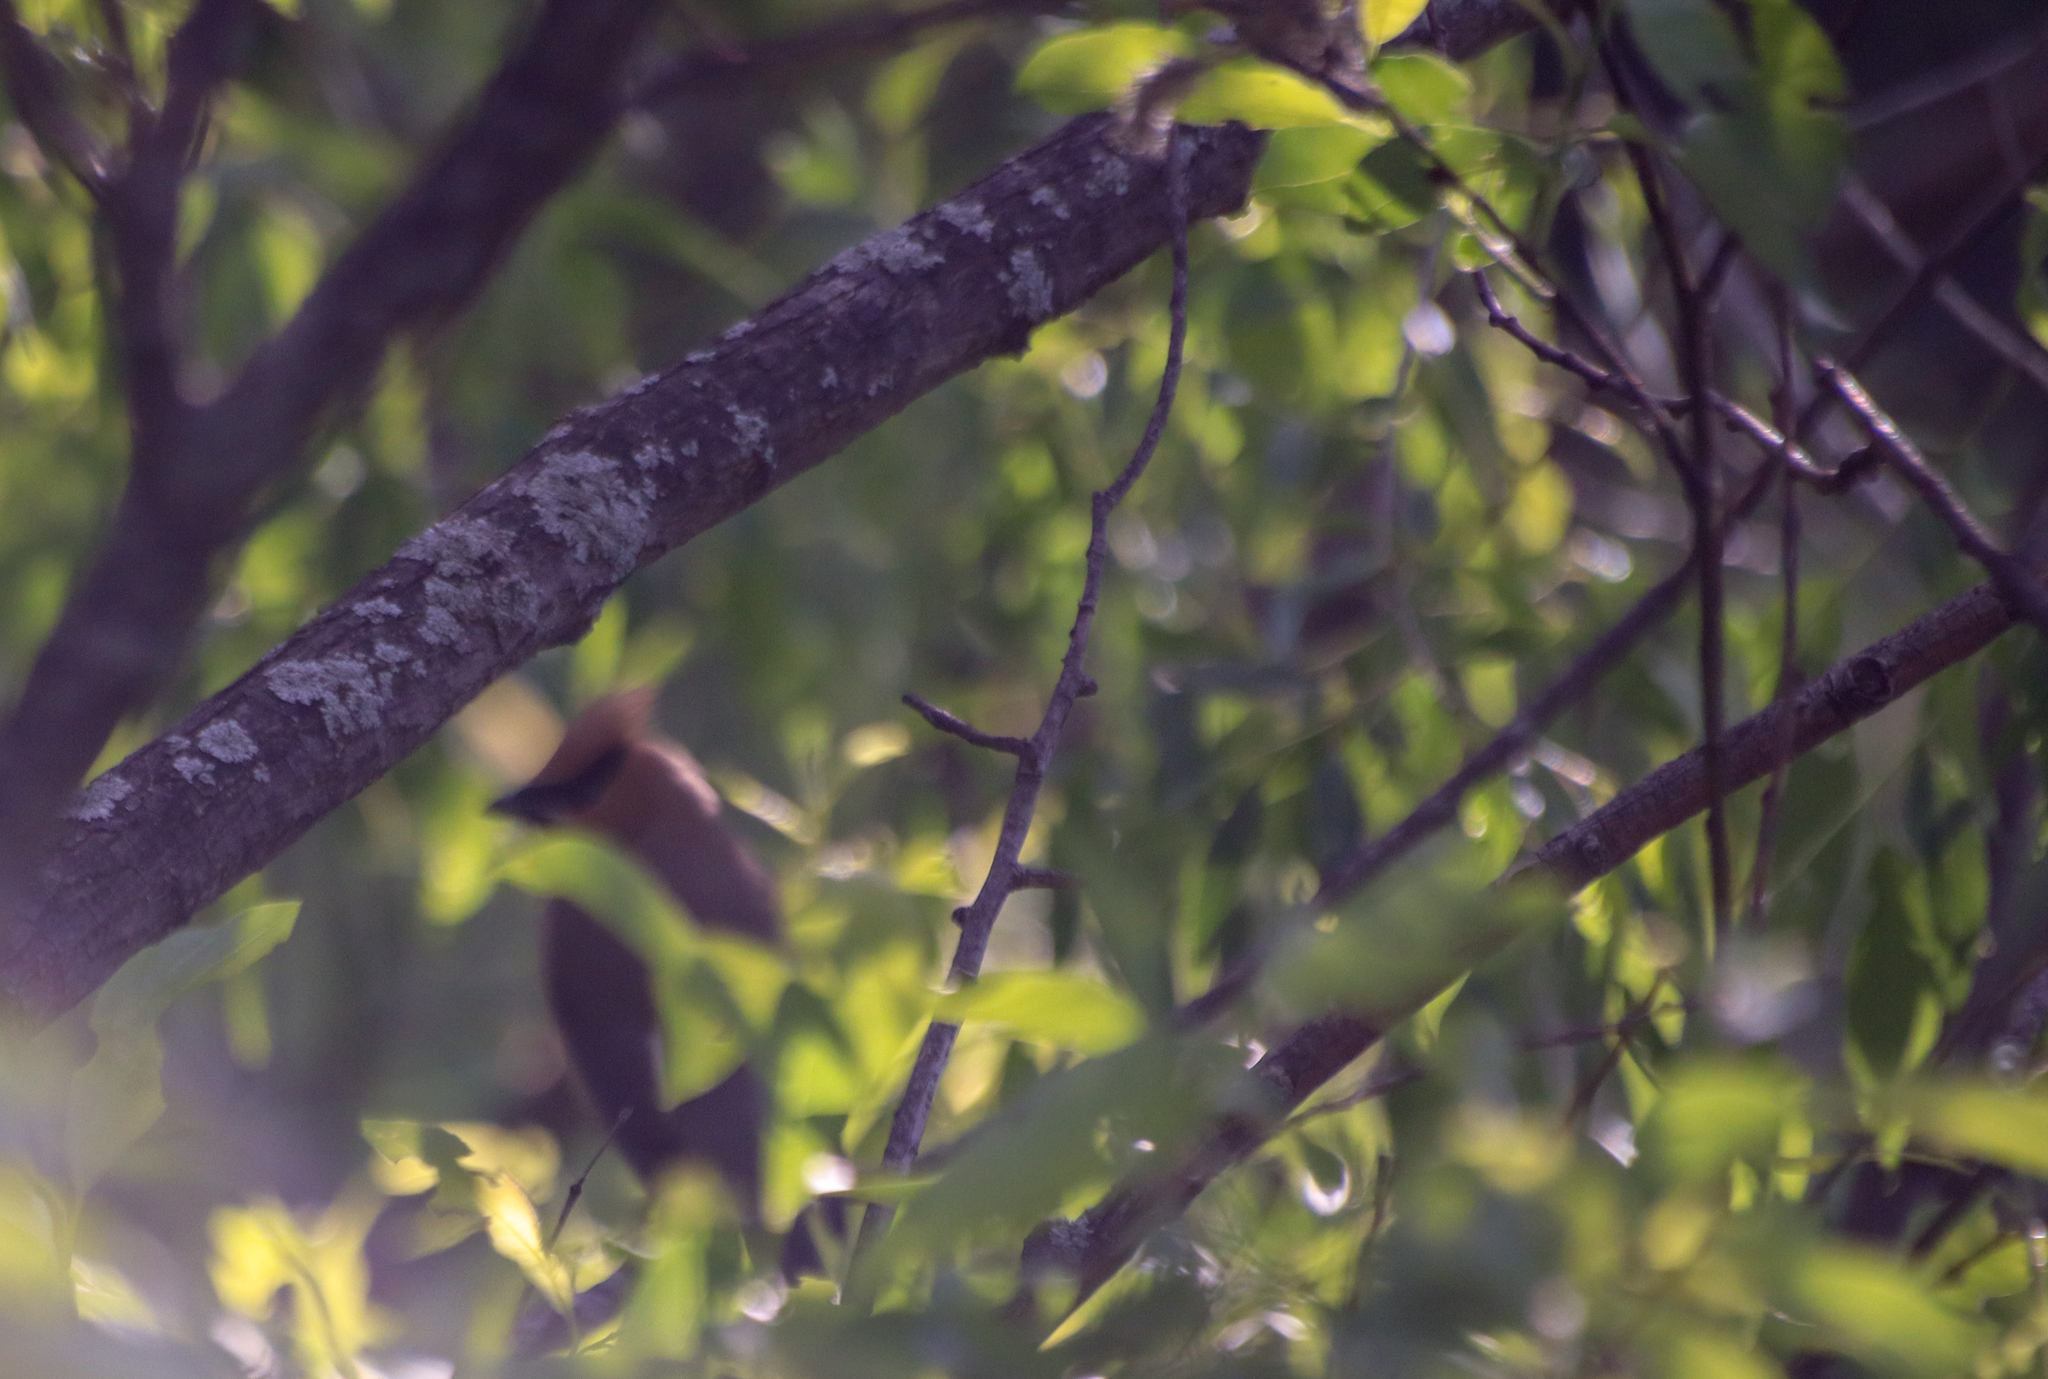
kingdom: Animalia
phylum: Chordata
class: Aves
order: Passeriformes
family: Bombycillidae
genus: Bombycilla
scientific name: Bombycilla cedrorum
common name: Cedar waxwing
